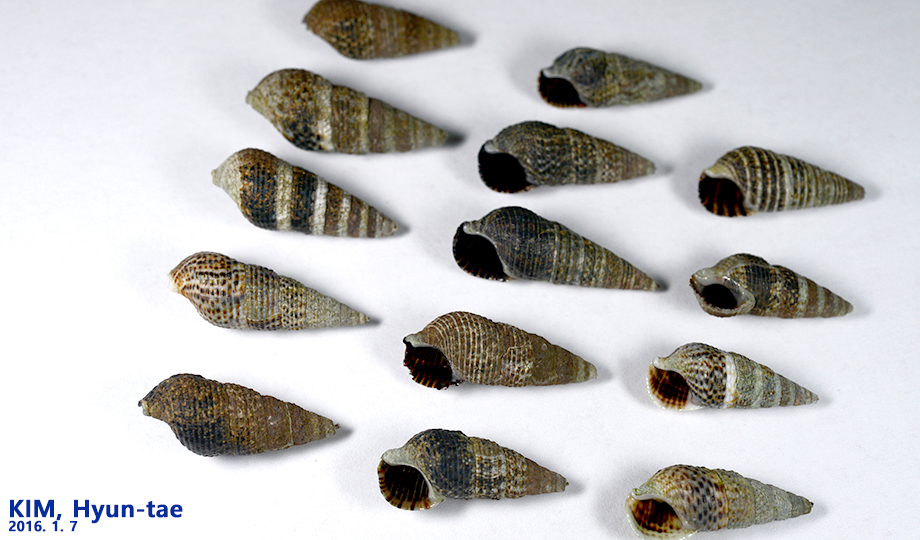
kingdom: Animalia
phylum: Mollusca
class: Gastropoda
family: Batillariidae
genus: Batillaria
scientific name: Batillaria attramentaria
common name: Japanese false cerith
